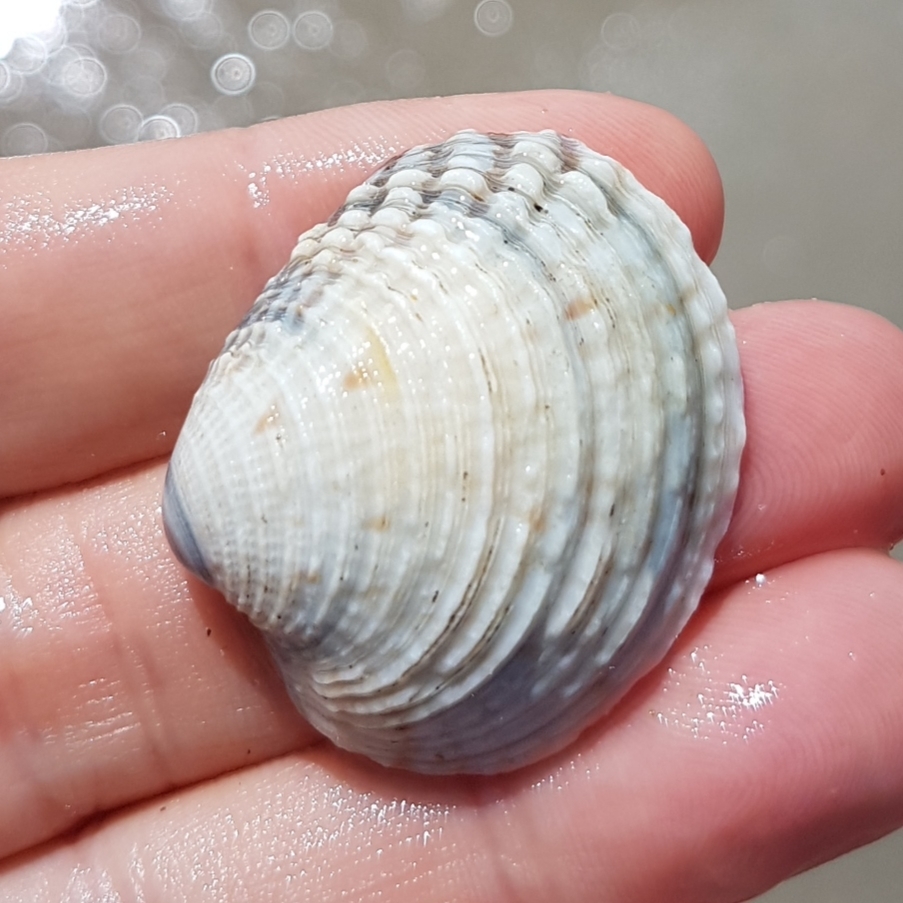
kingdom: Animalia
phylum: Mollusca
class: Bivalvia
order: Venerida
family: Veneridae
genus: Venus
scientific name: Venus verrucosa
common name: Warty venus
